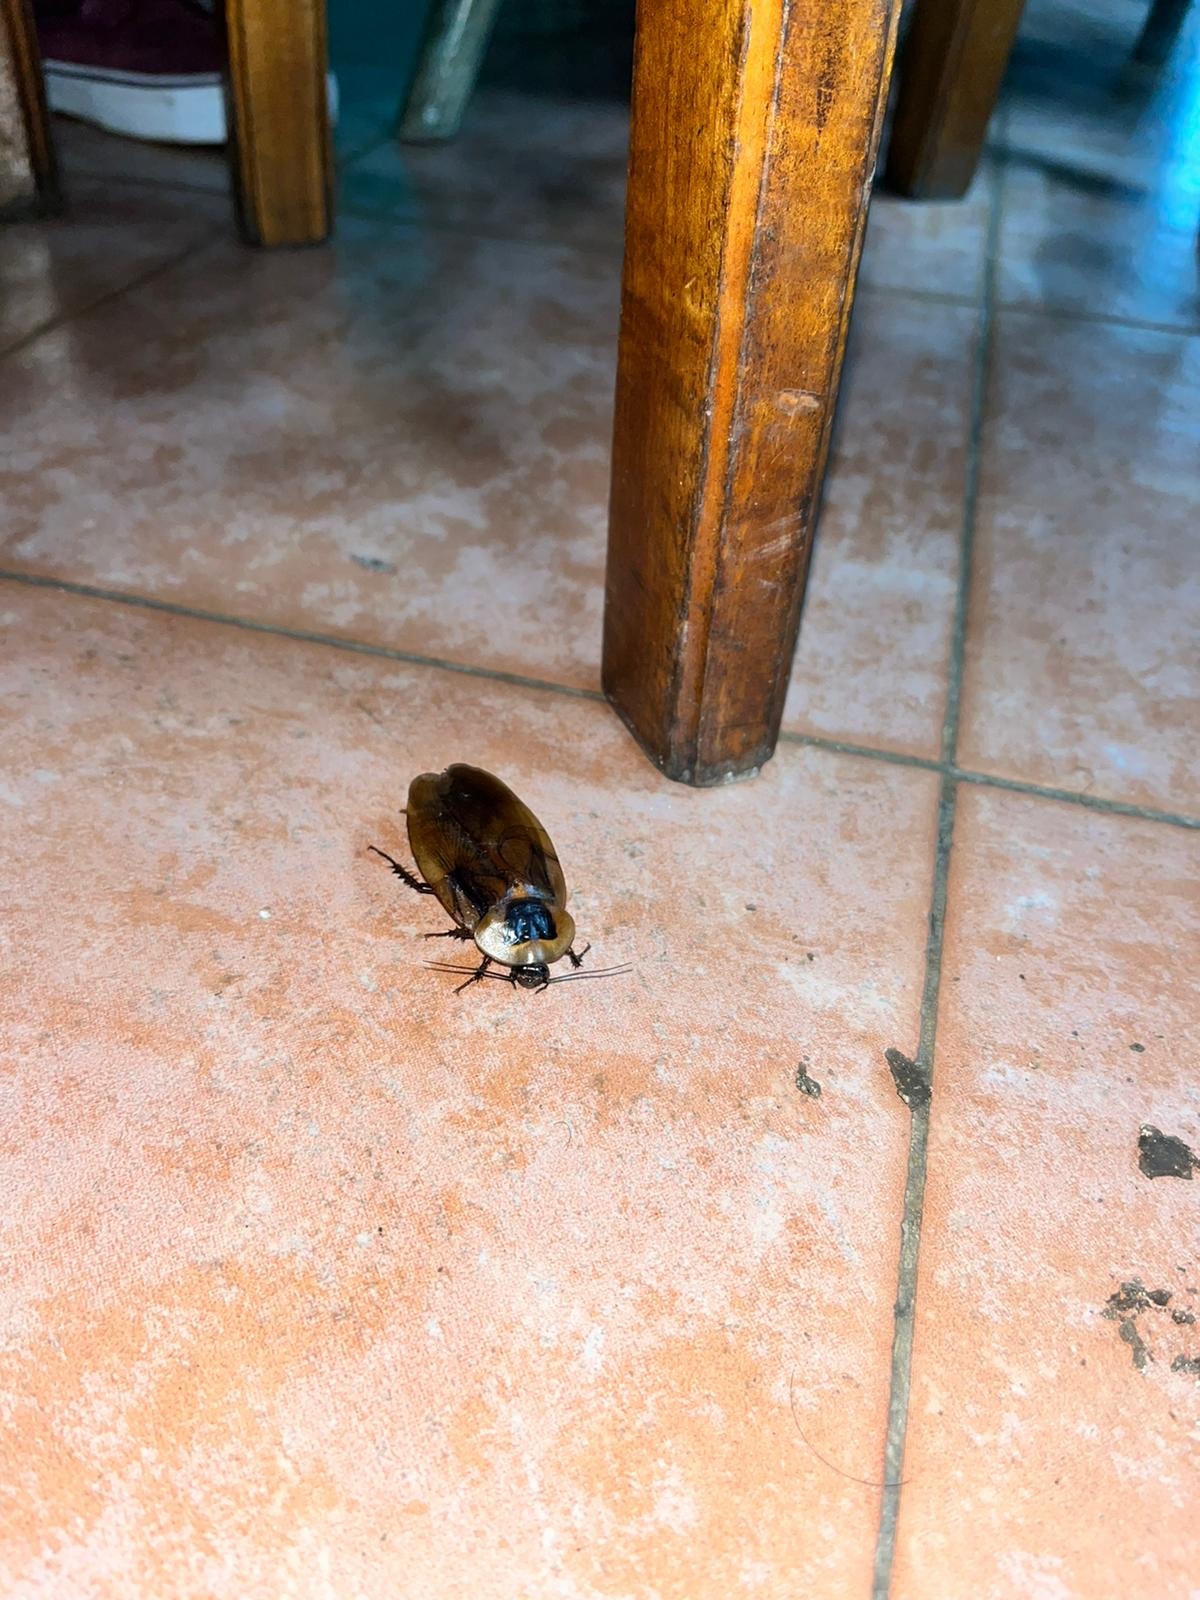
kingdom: Animalia
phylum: Arthropoda
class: Insecta
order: Blattodea
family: Blaberidae
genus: Blaberus
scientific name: Blaberus discoidalis
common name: Discoid cockroach
